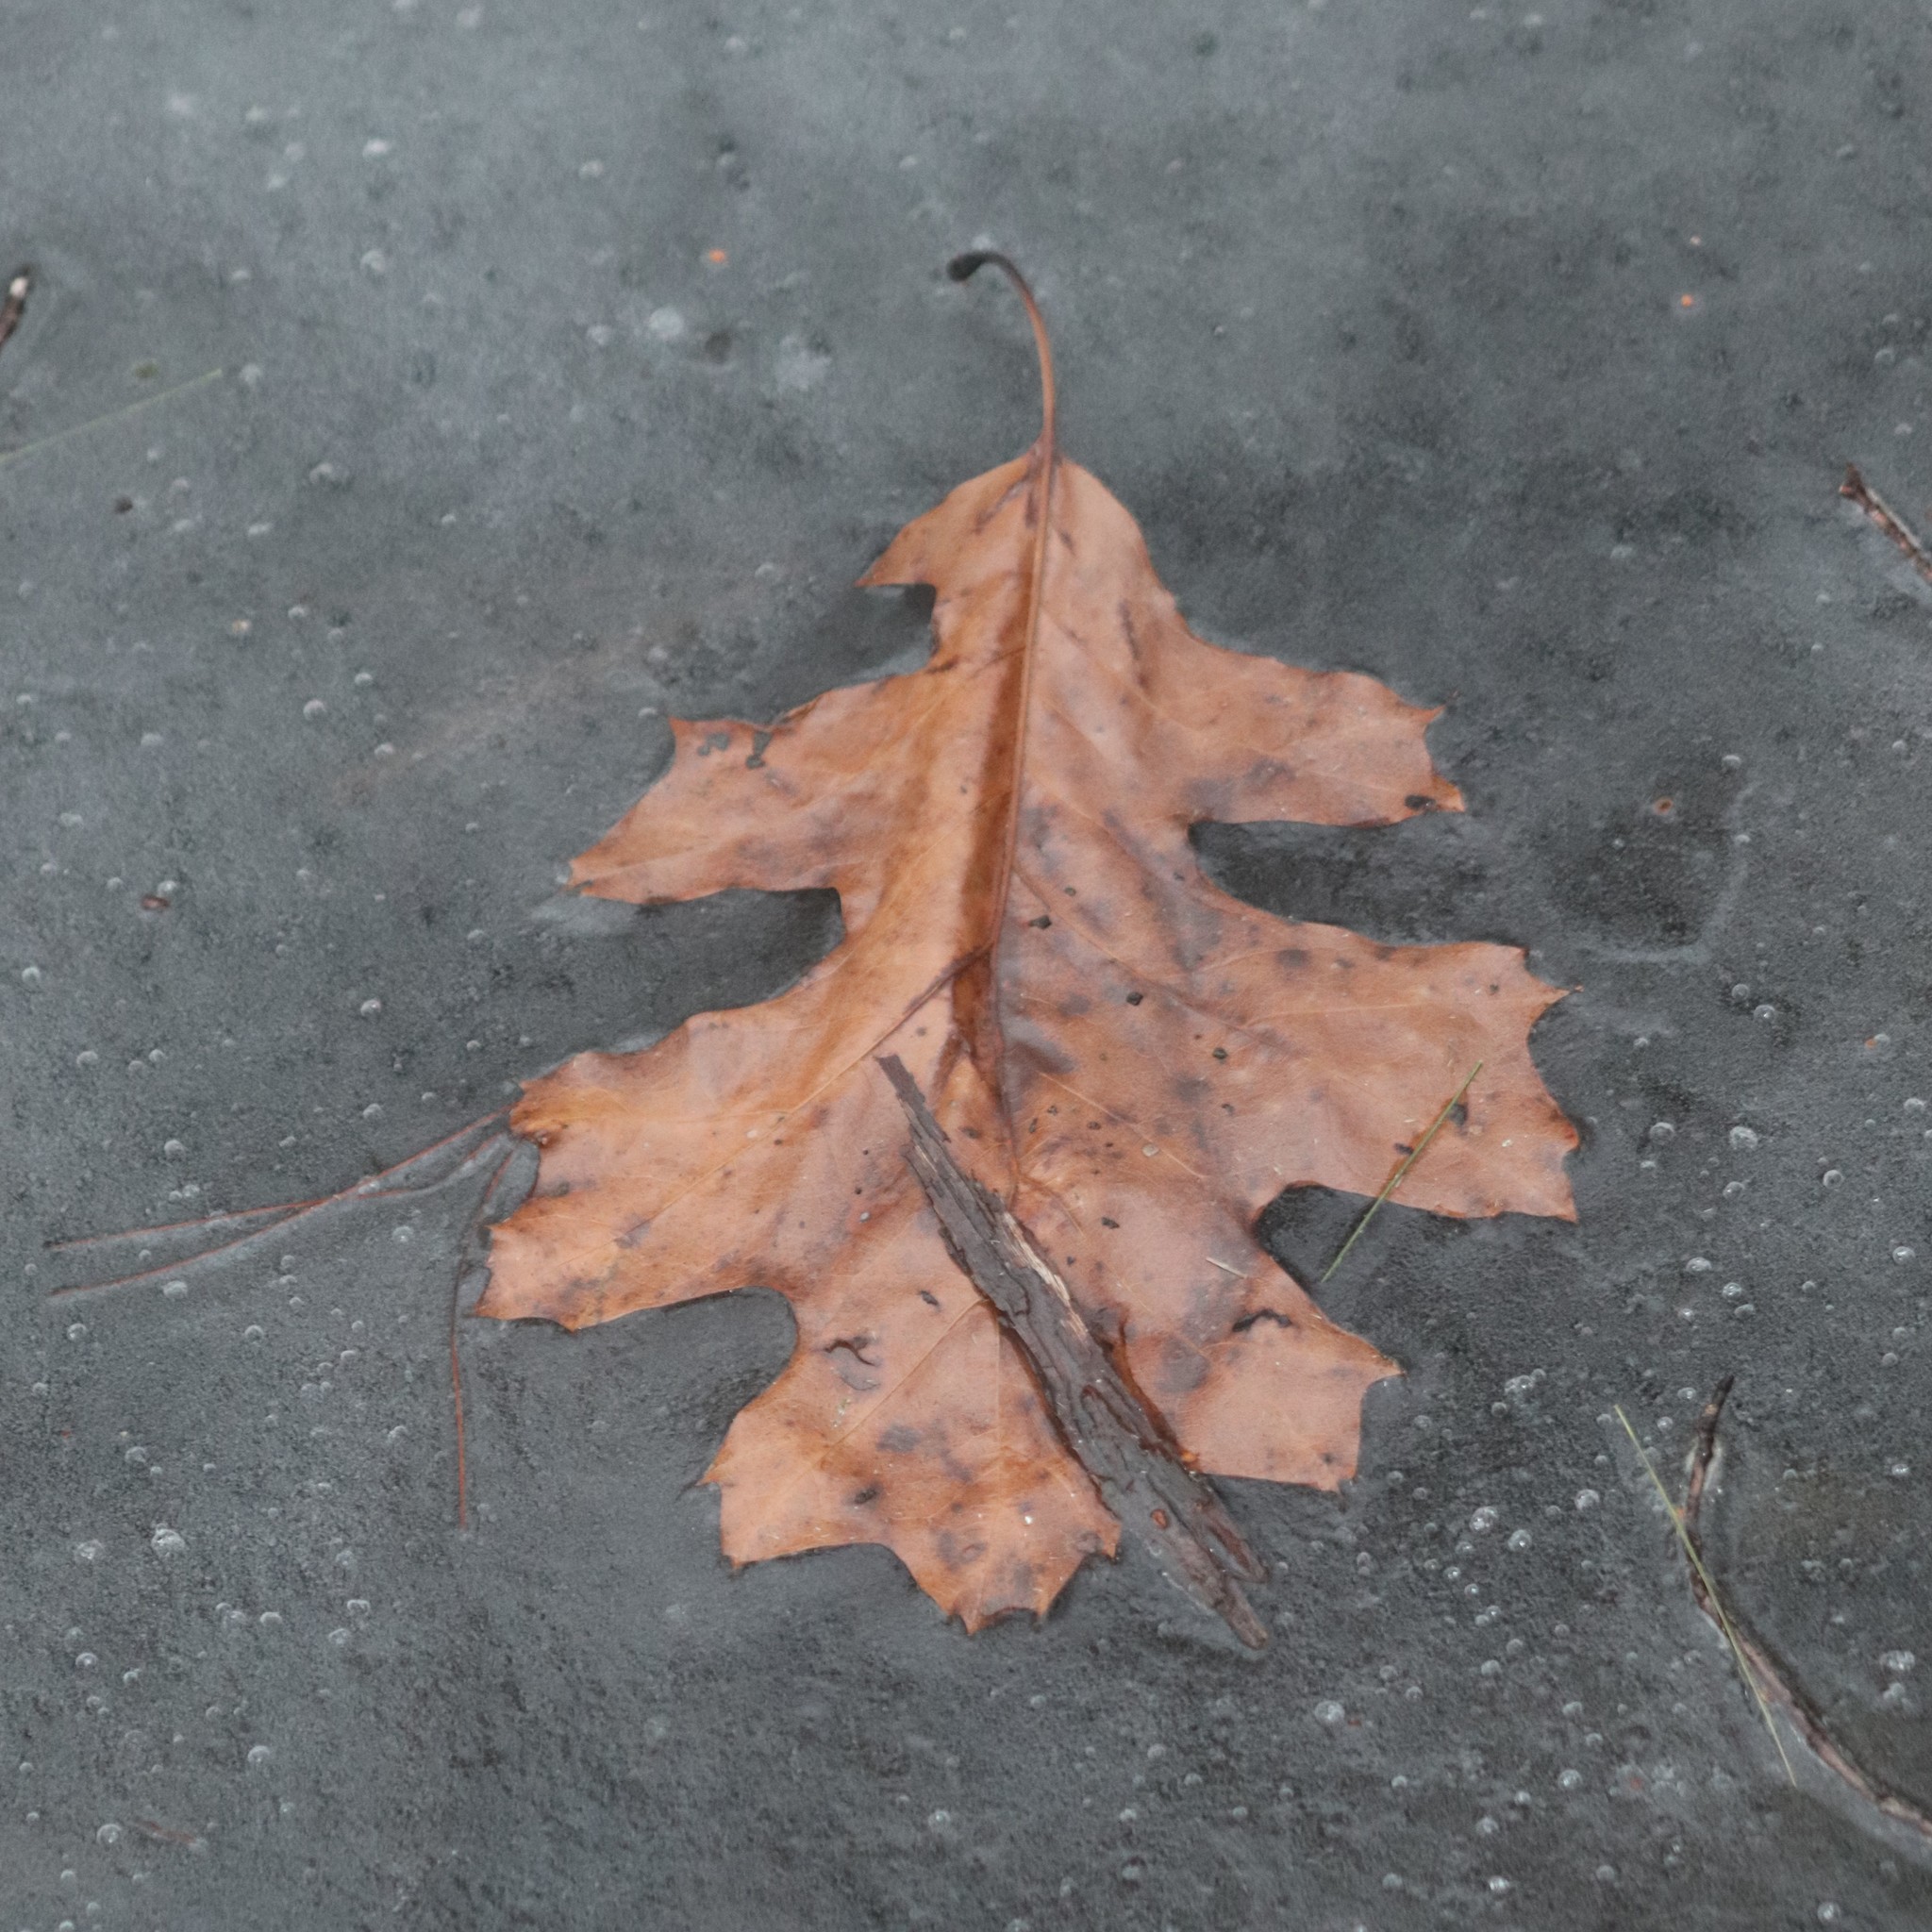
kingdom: Plantae
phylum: Tracheophyta
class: Magnoliopsida
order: Fagales
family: Fagaceae
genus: Quercus
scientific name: Quercus velutina
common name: Black oak
